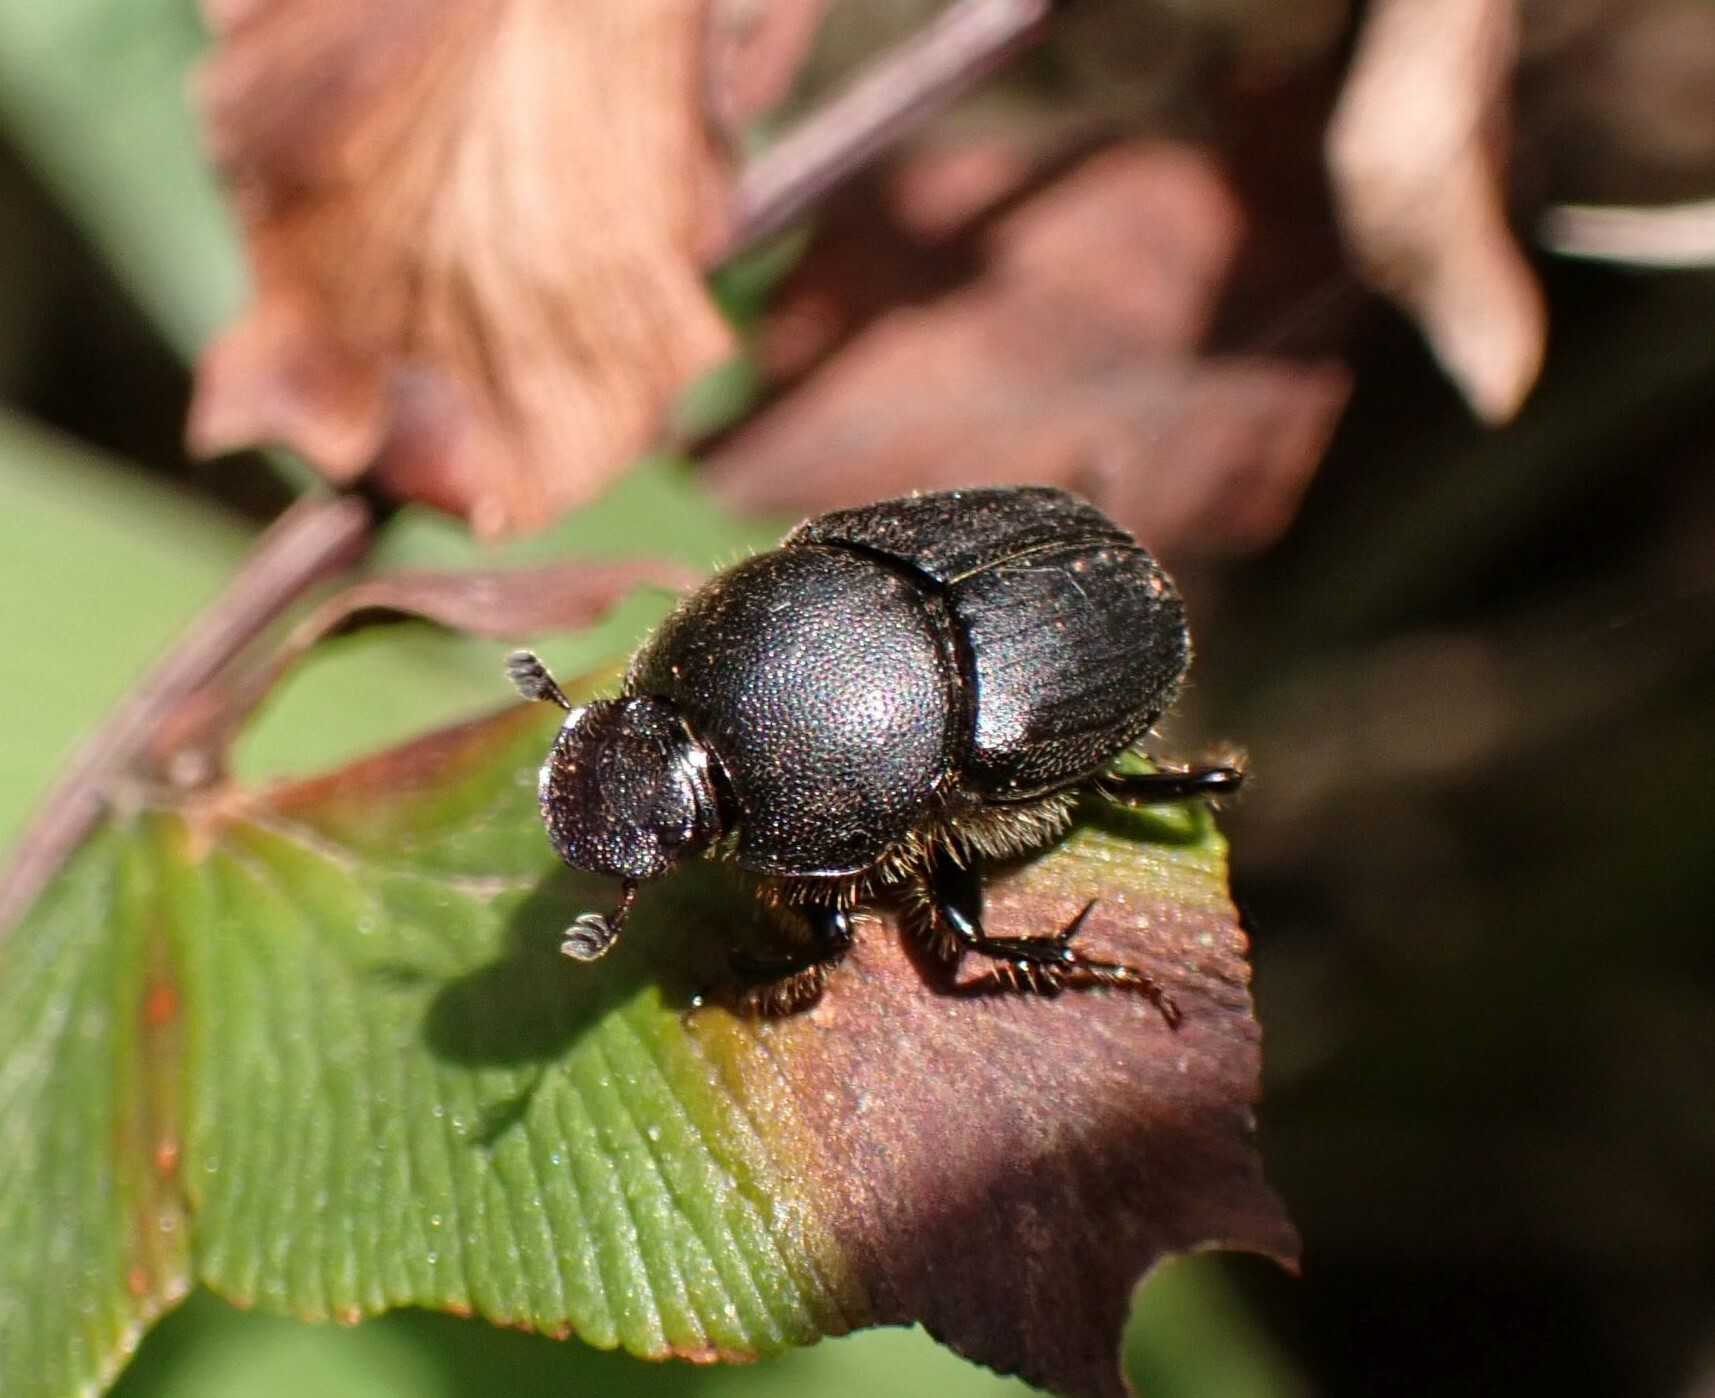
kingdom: Animalia
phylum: Arthropoda
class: Insecta
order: Coleoptera
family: Scarabaeidae
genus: Onthophagus
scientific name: Onthophagus obtusicornis
